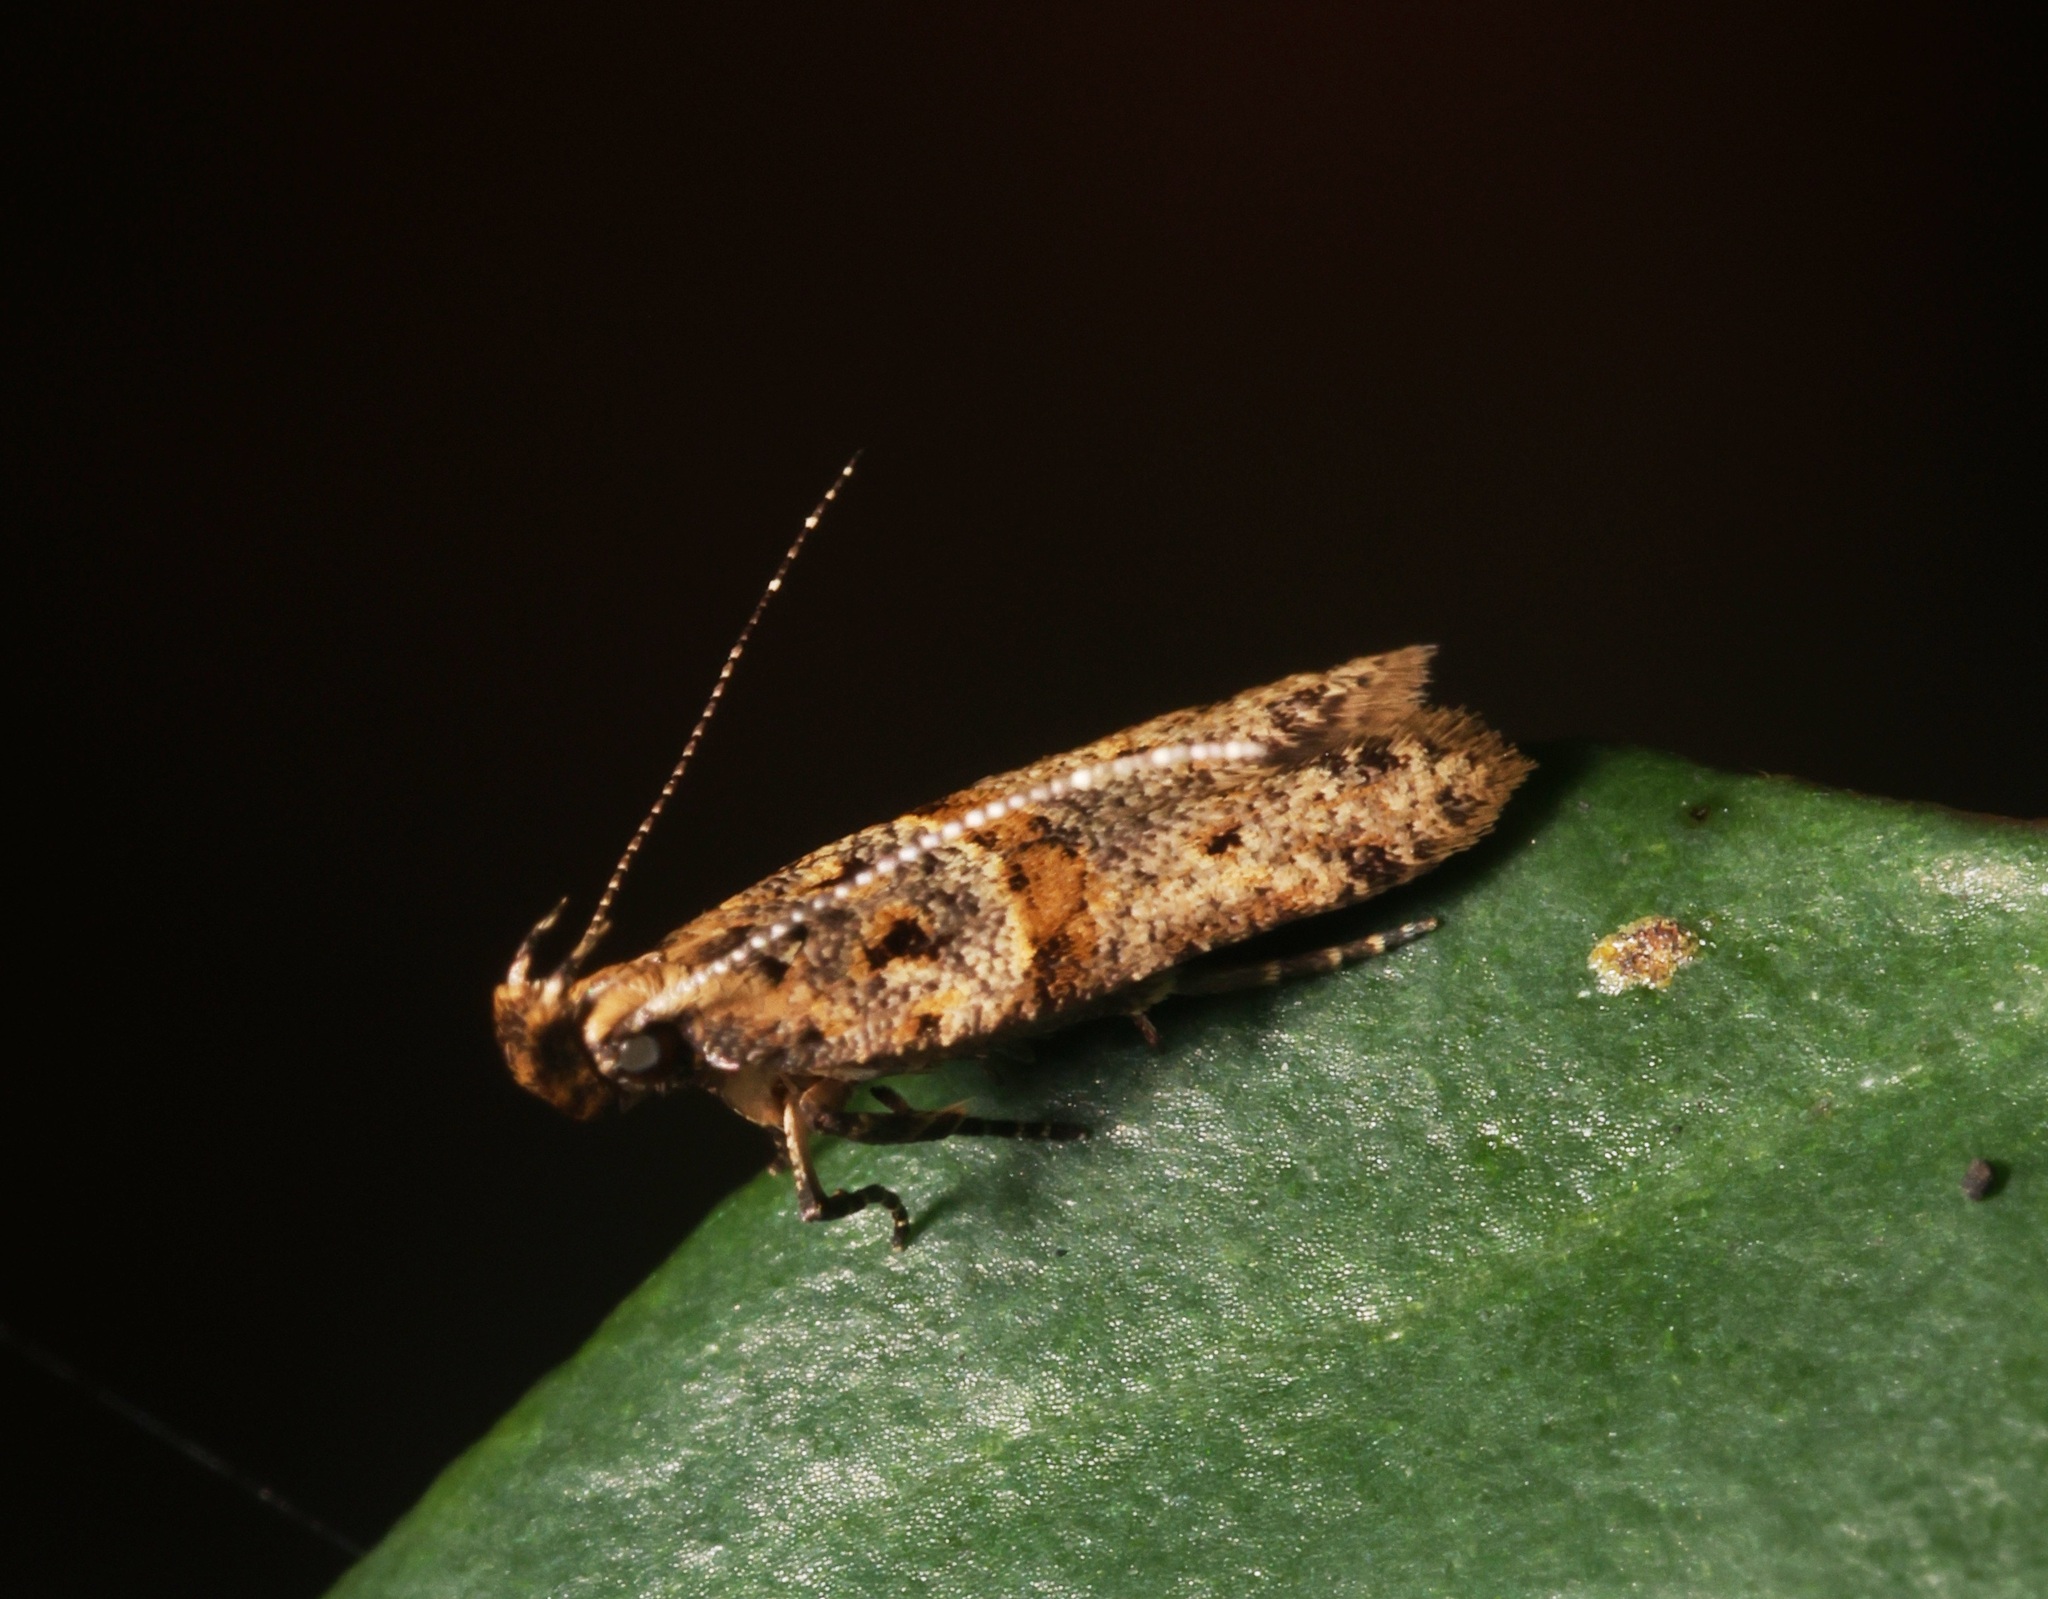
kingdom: Animalia
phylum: Arthropoda
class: Insecta
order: Lepidoptera
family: Gelechiidae
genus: Deltophora
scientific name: Deltophora polliniferens
